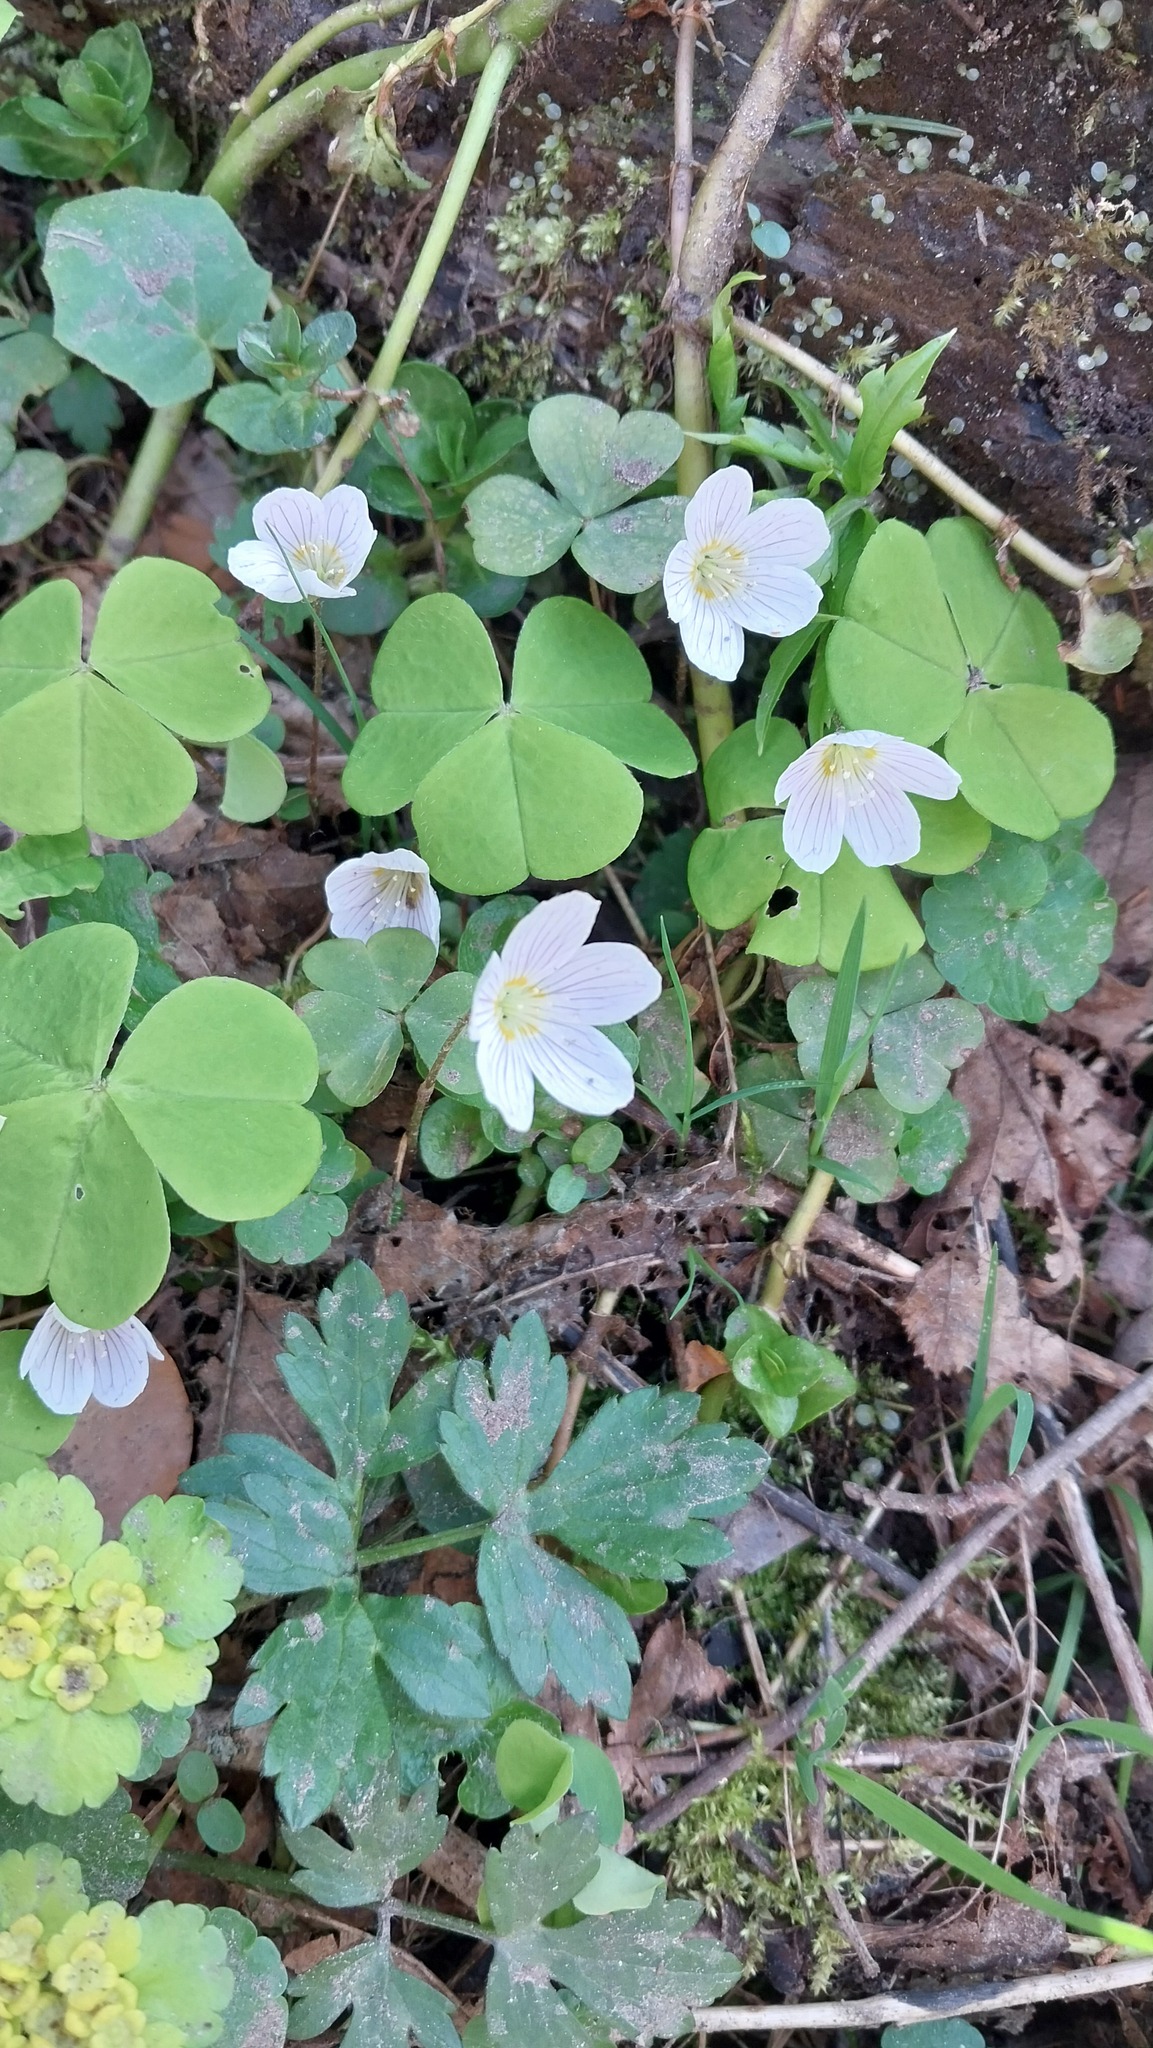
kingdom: Plantae
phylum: Tracheophyta
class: Magnoliopsida
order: Oxalidales
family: Oxalidaceae
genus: Oxalis
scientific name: Oxalis acetosella
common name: Wood-sorrel
